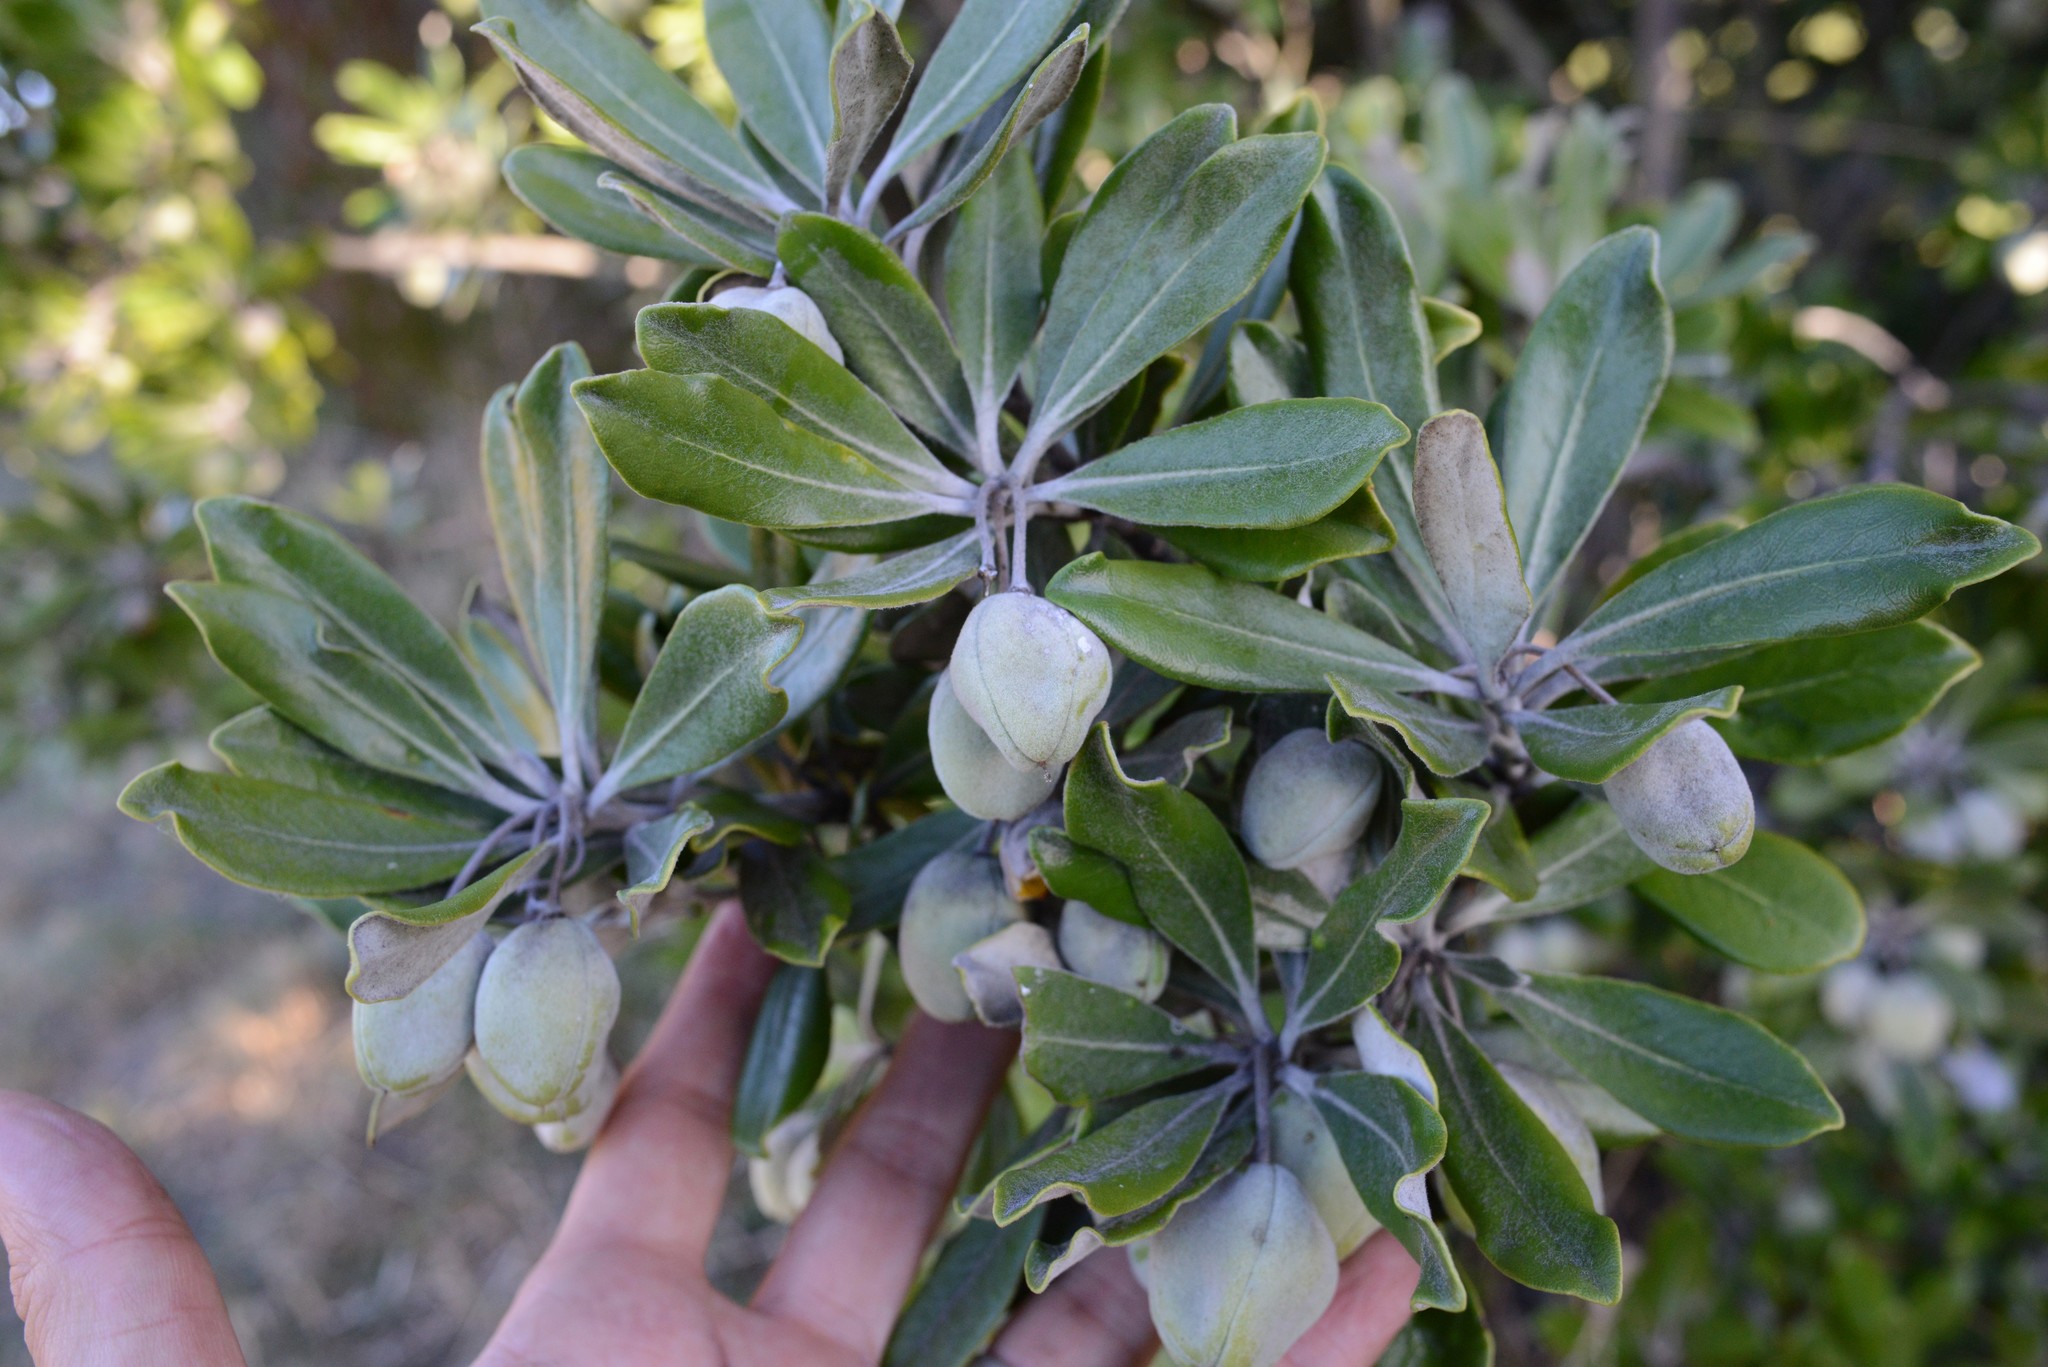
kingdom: Plantae
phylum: Tracheophyta
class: Magnoliopsida
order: Apiales
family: Pittosporaceae
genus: Pittosporum
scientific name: Pittosporum crassifolium
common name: Karo
